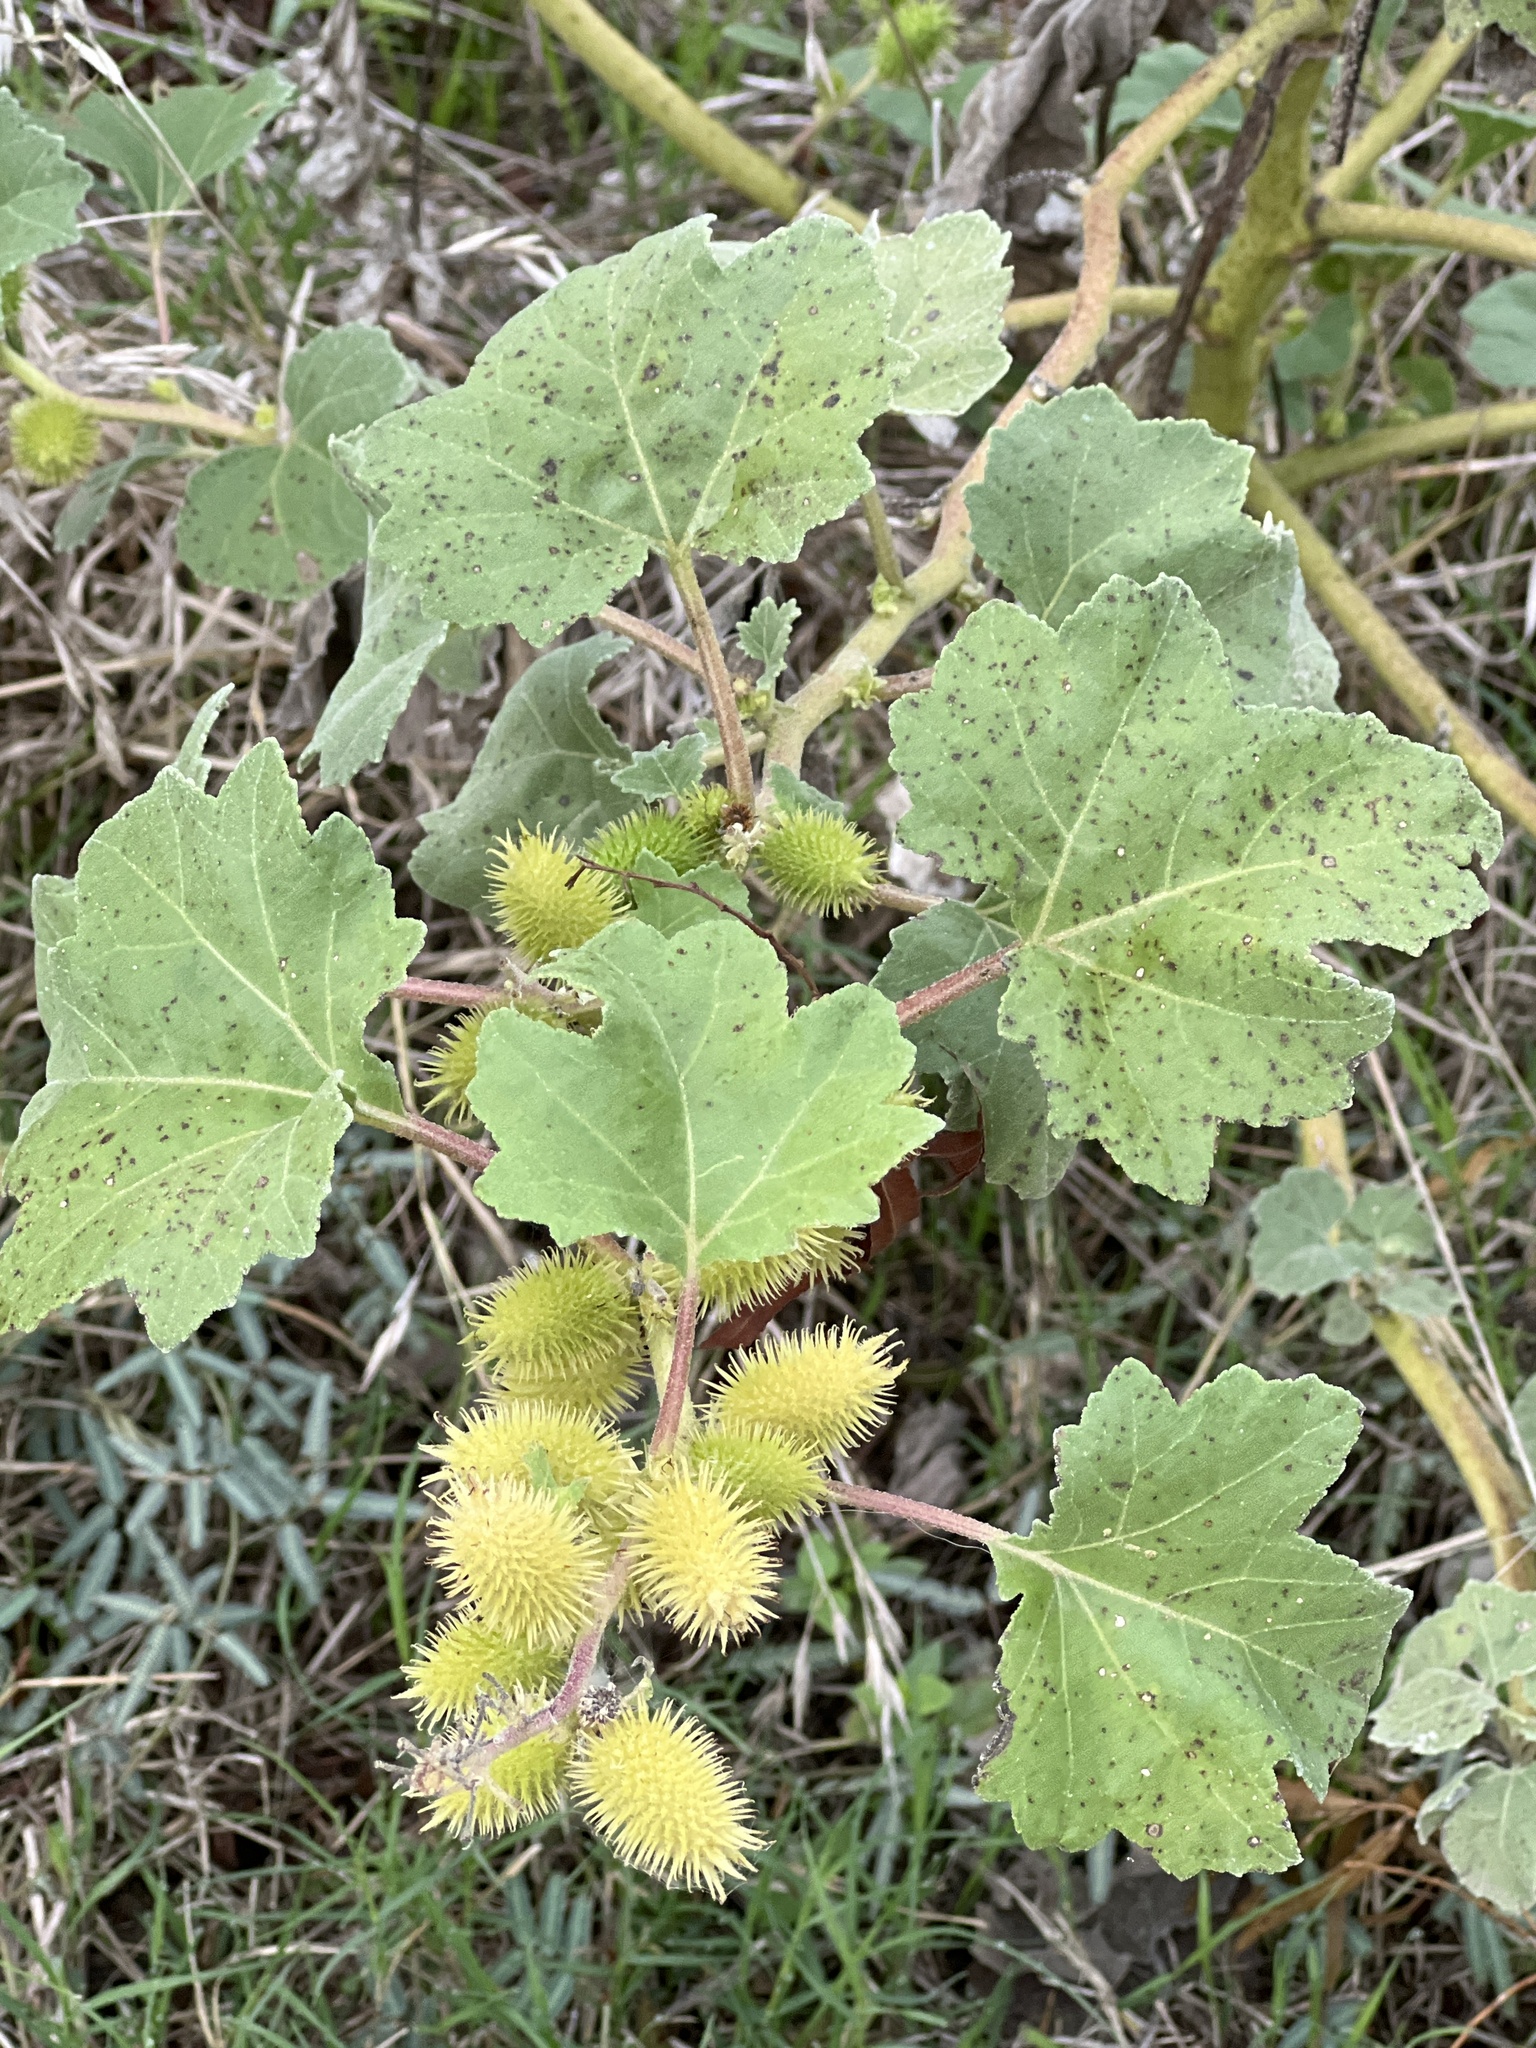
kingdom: Plantae
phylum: Tracheophyta
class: Magnoliopsida
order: Asterales
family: Asteraceae
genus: Xanthium
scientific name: Xanthium strumarium
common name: Rough cocklebur
